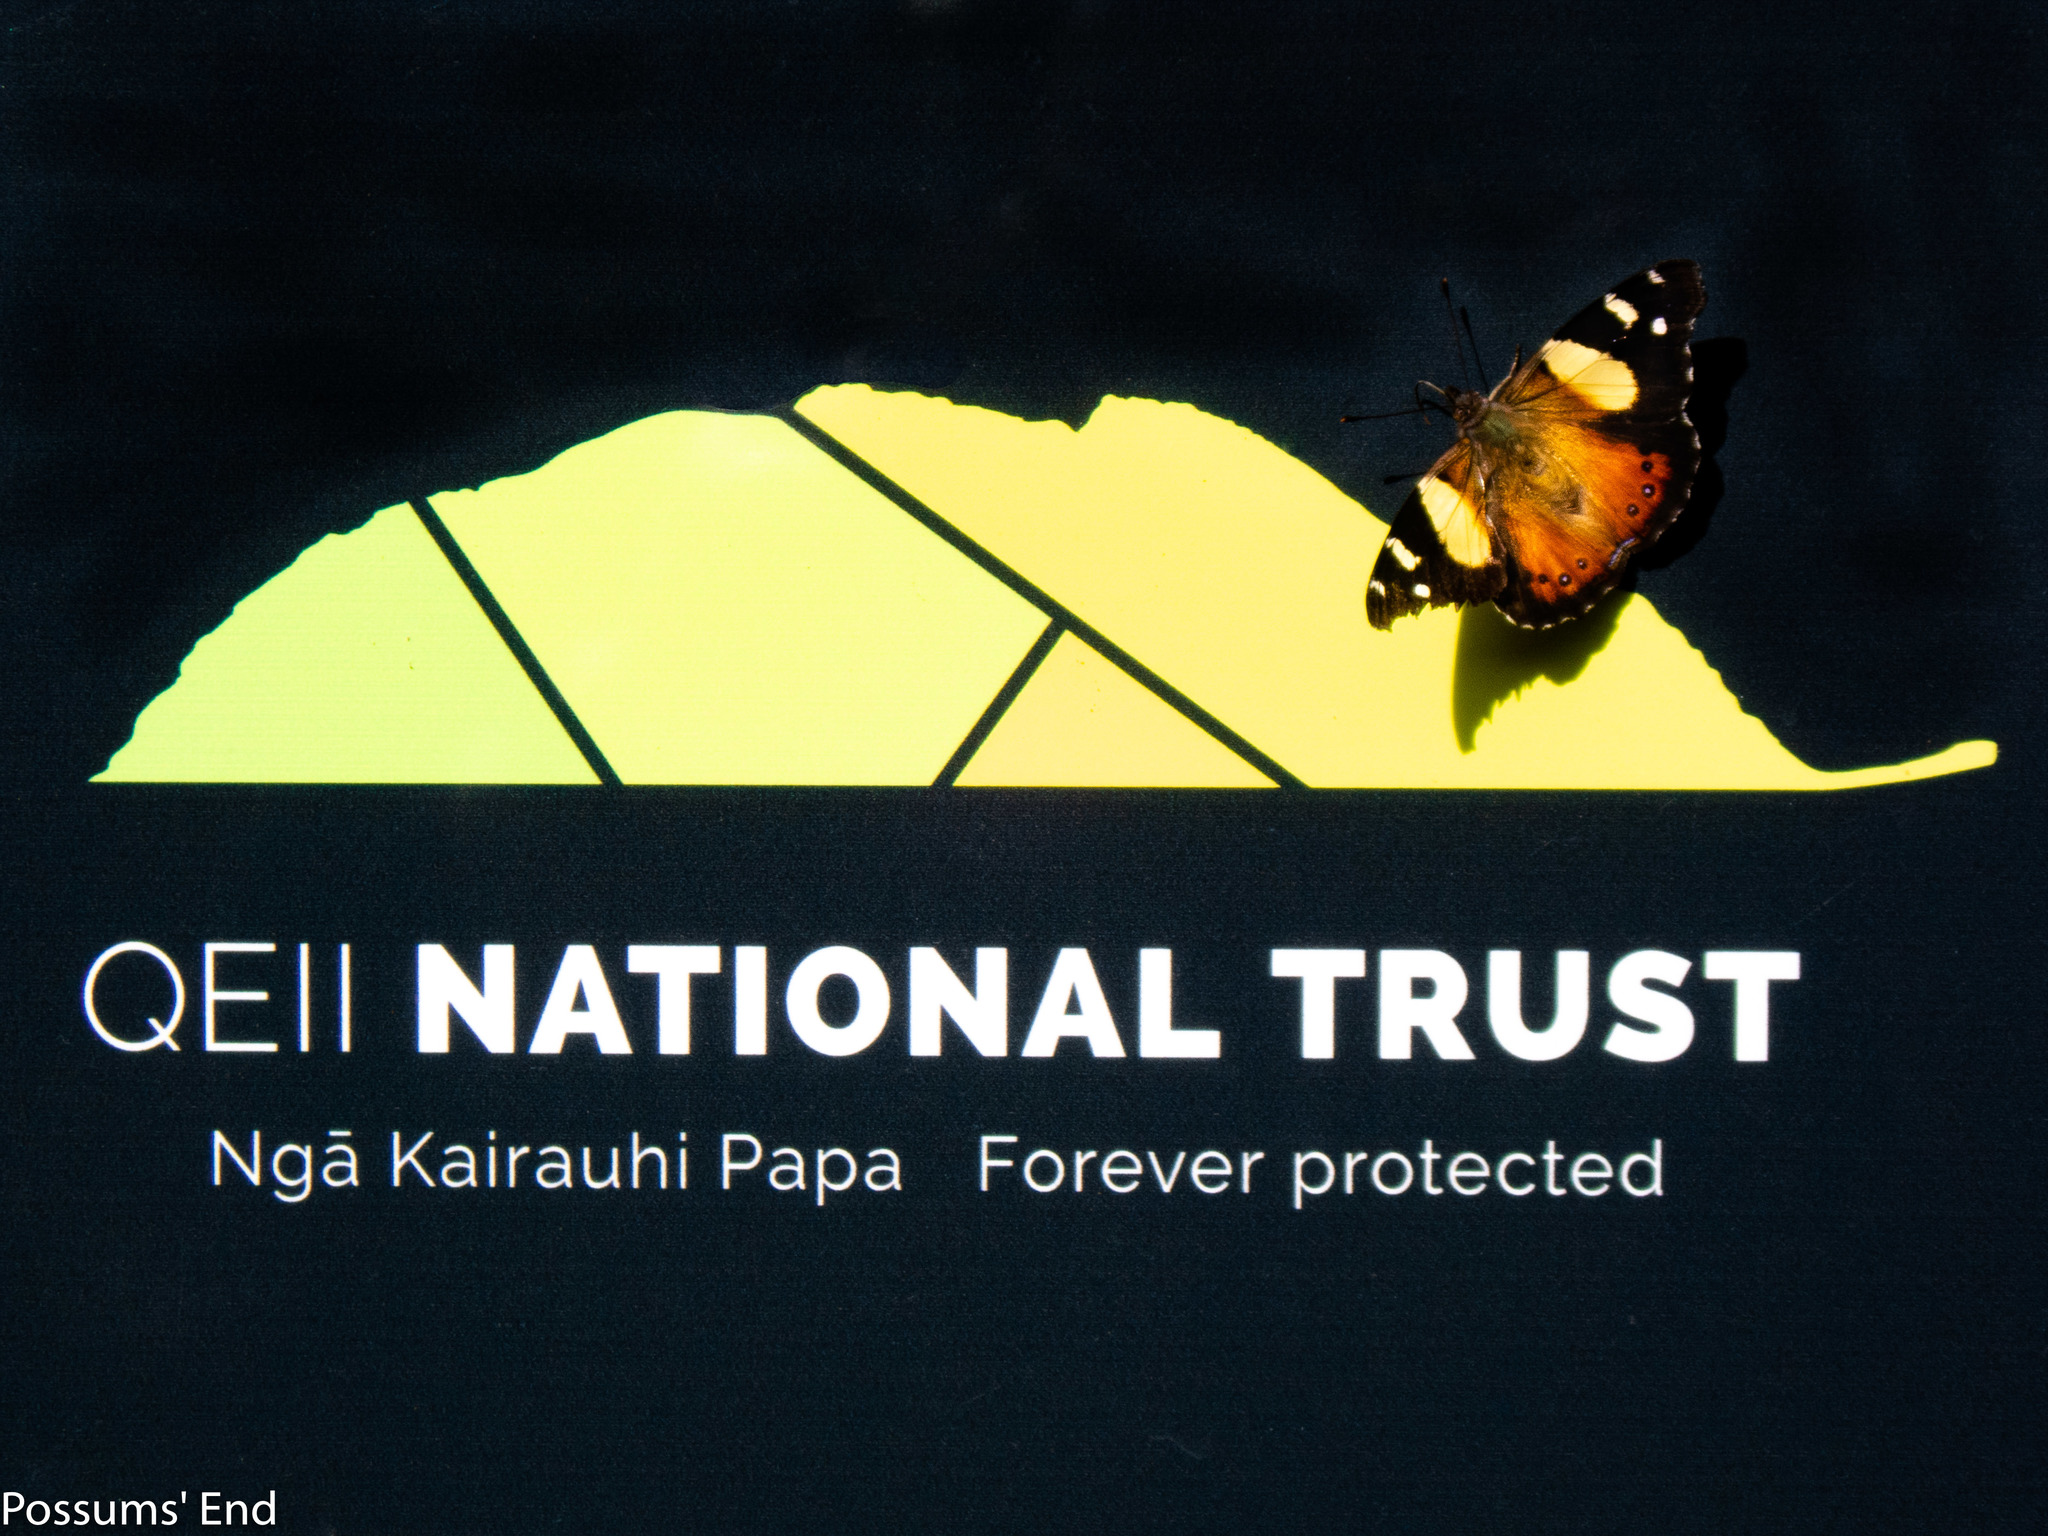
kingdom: Animalia
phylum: Arthropoda
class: Insecta
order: Lepidoptera
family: Nymphalidae
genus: Vanessa
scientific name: Vanessa itea
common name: Yellow admiral
